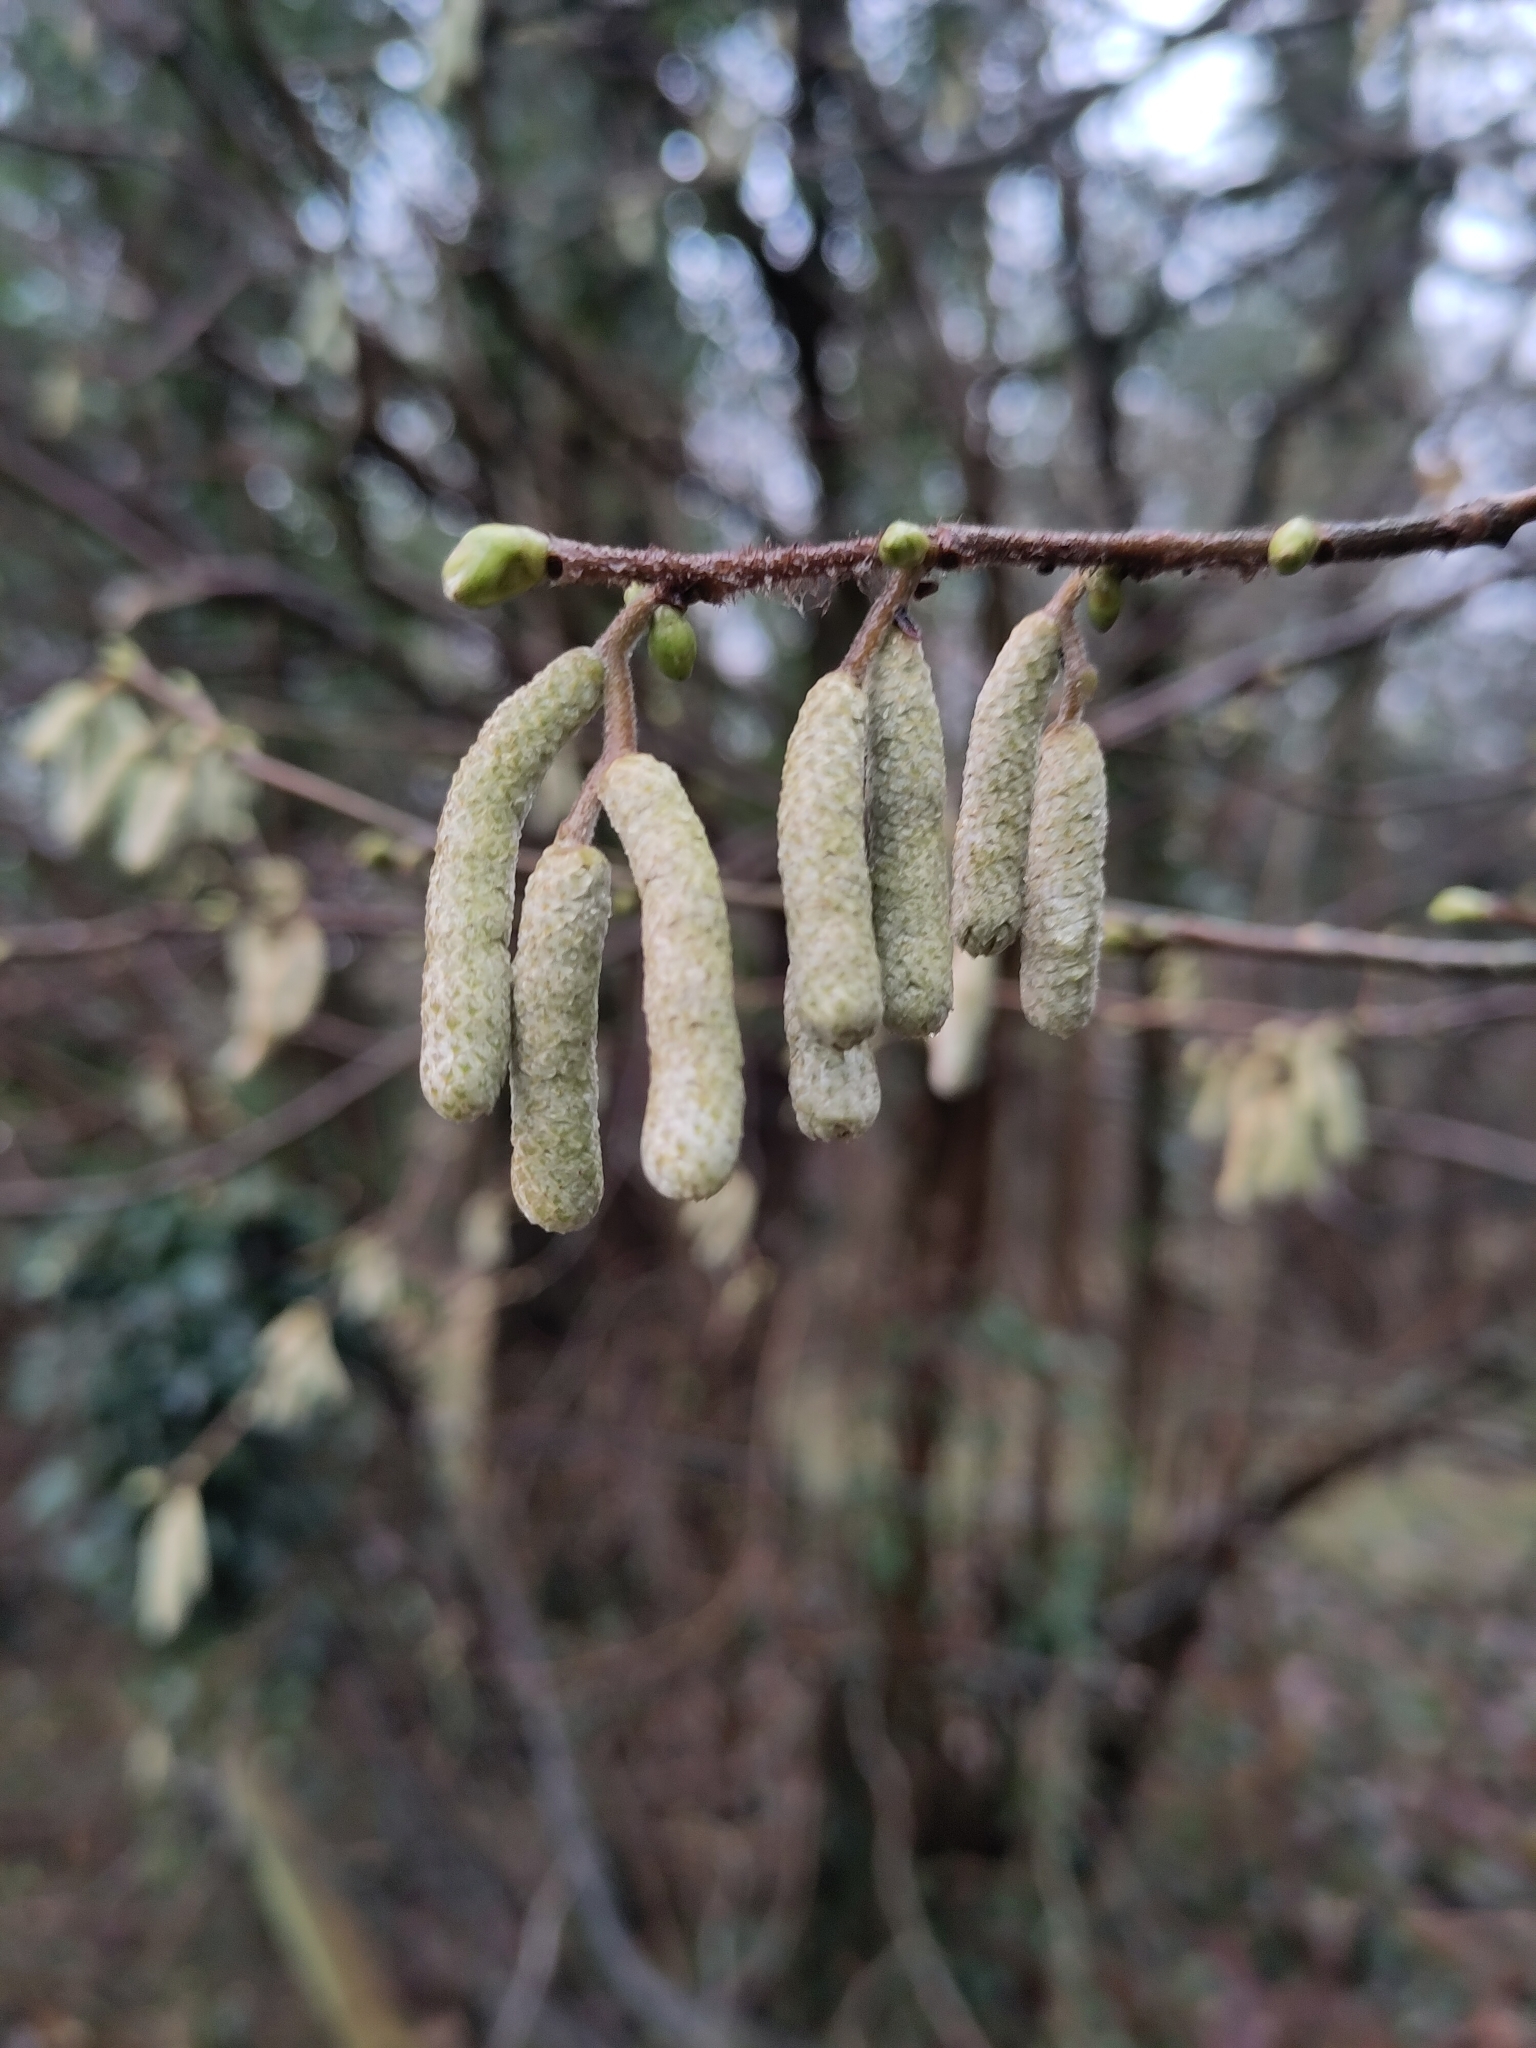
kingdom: Plantae
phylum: Tracheophyta
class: Magnoliopsida
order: Fagales
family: Betulaceae
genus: Corylus
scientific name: Corylus avellana
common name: European hazel
